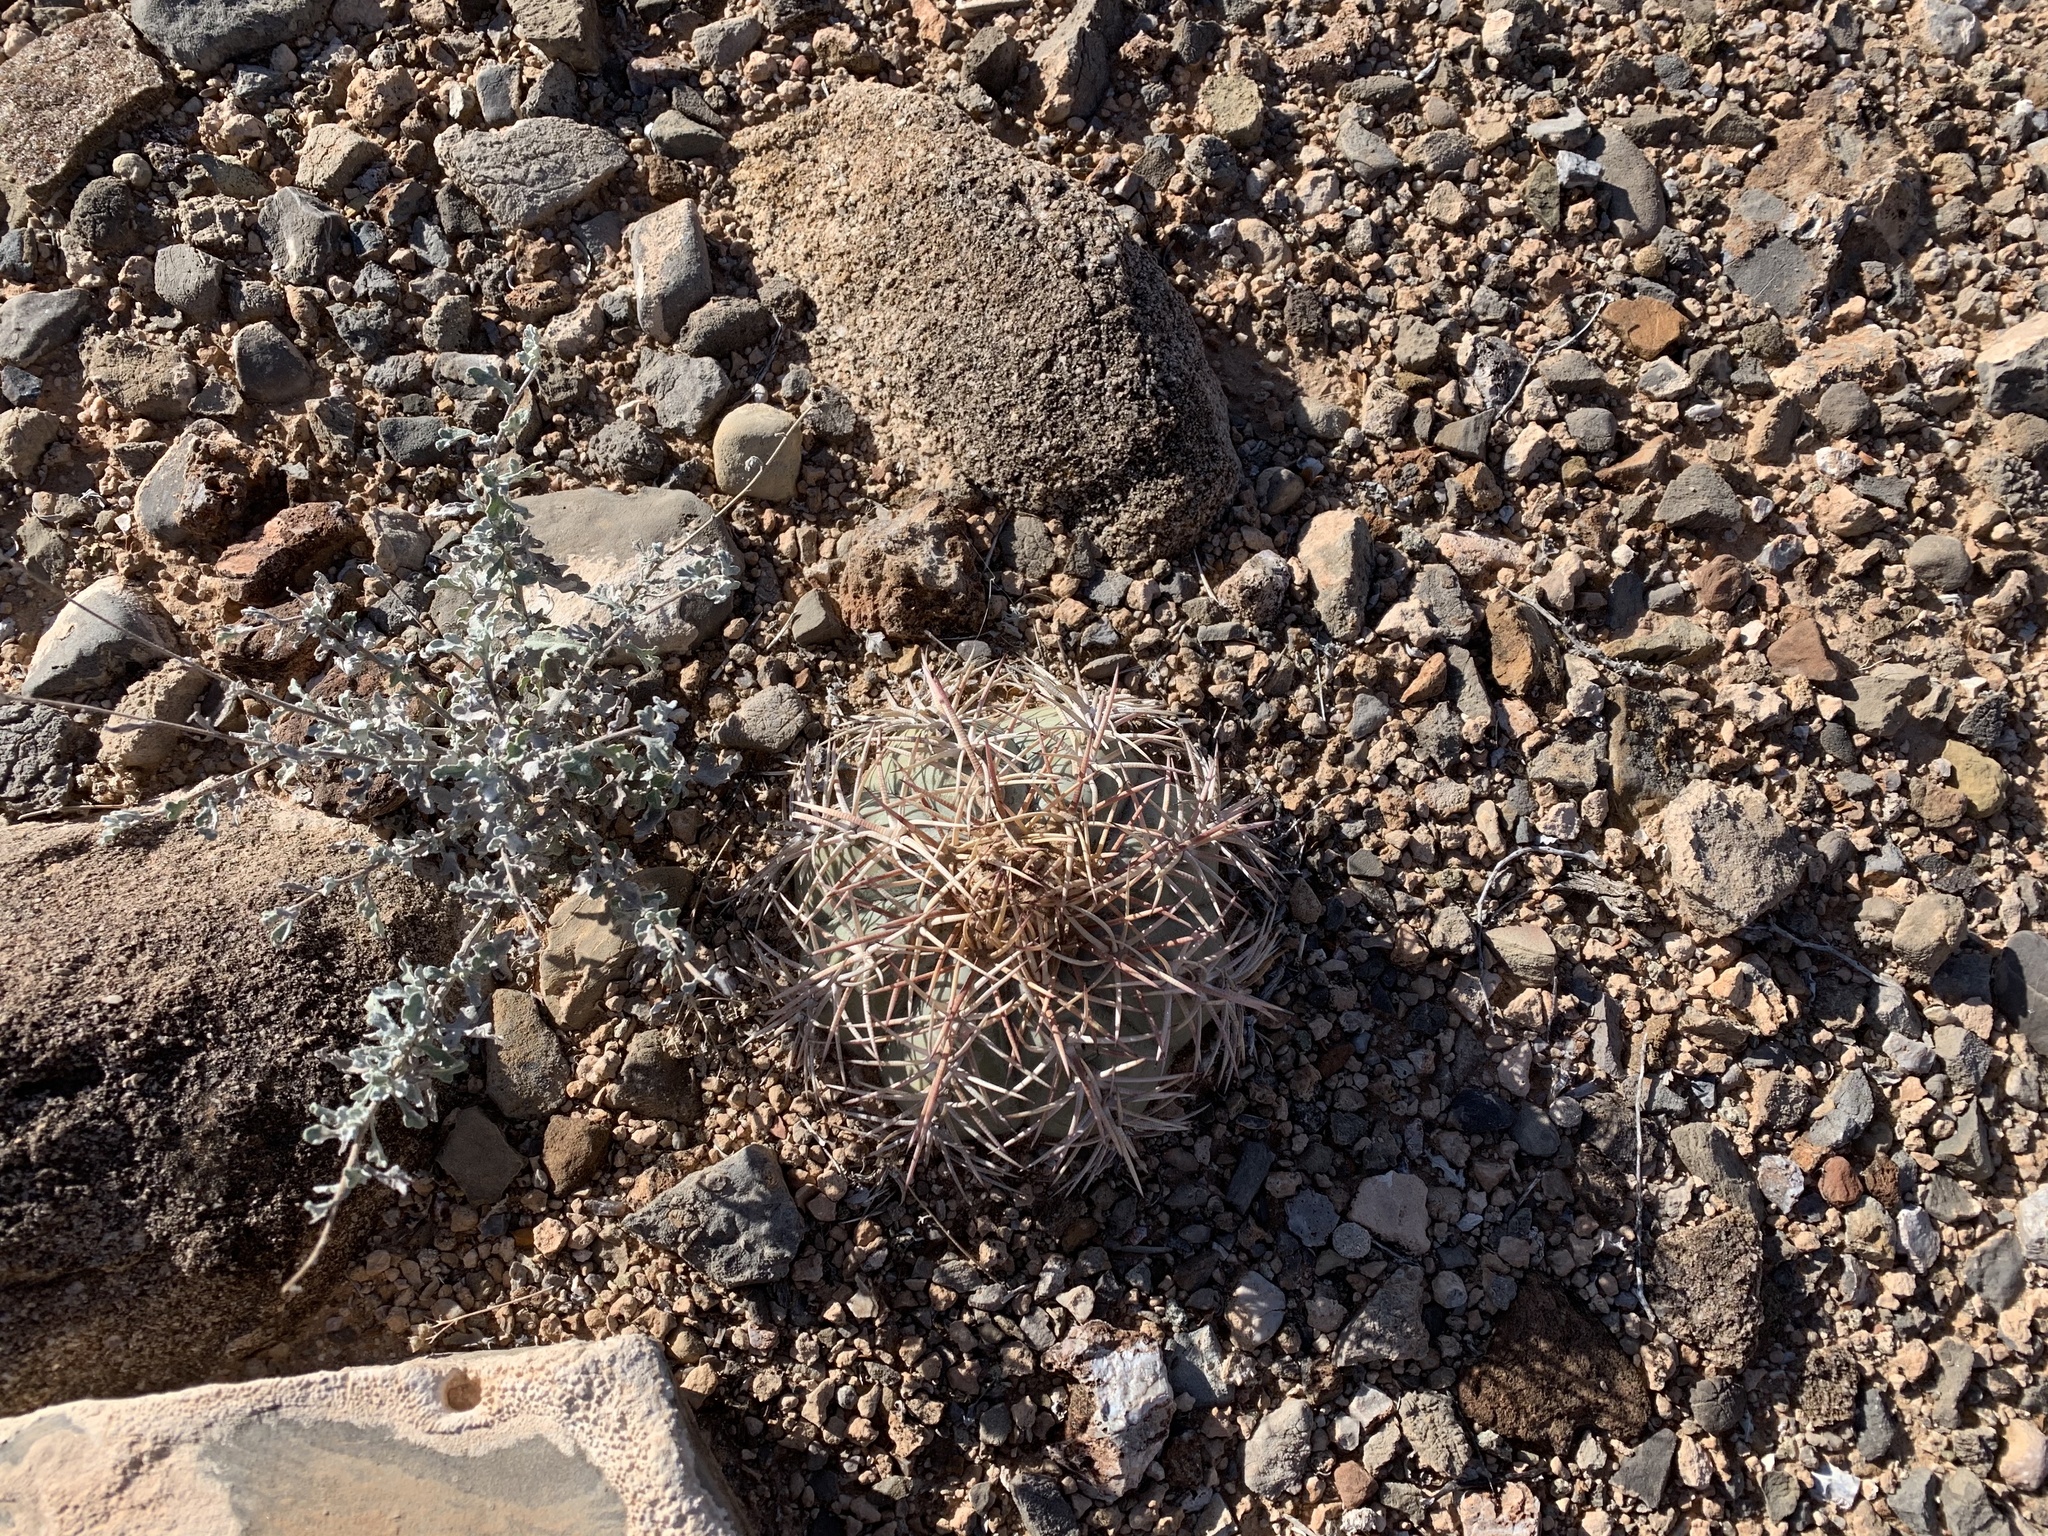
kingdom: Plantae
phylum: Tracheophyta
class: Magnoliopsida
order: Caryophyllales
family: Cactaceae
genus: Echinocactus
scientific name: Echinocactus horizonthalonius
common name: Devilshead
